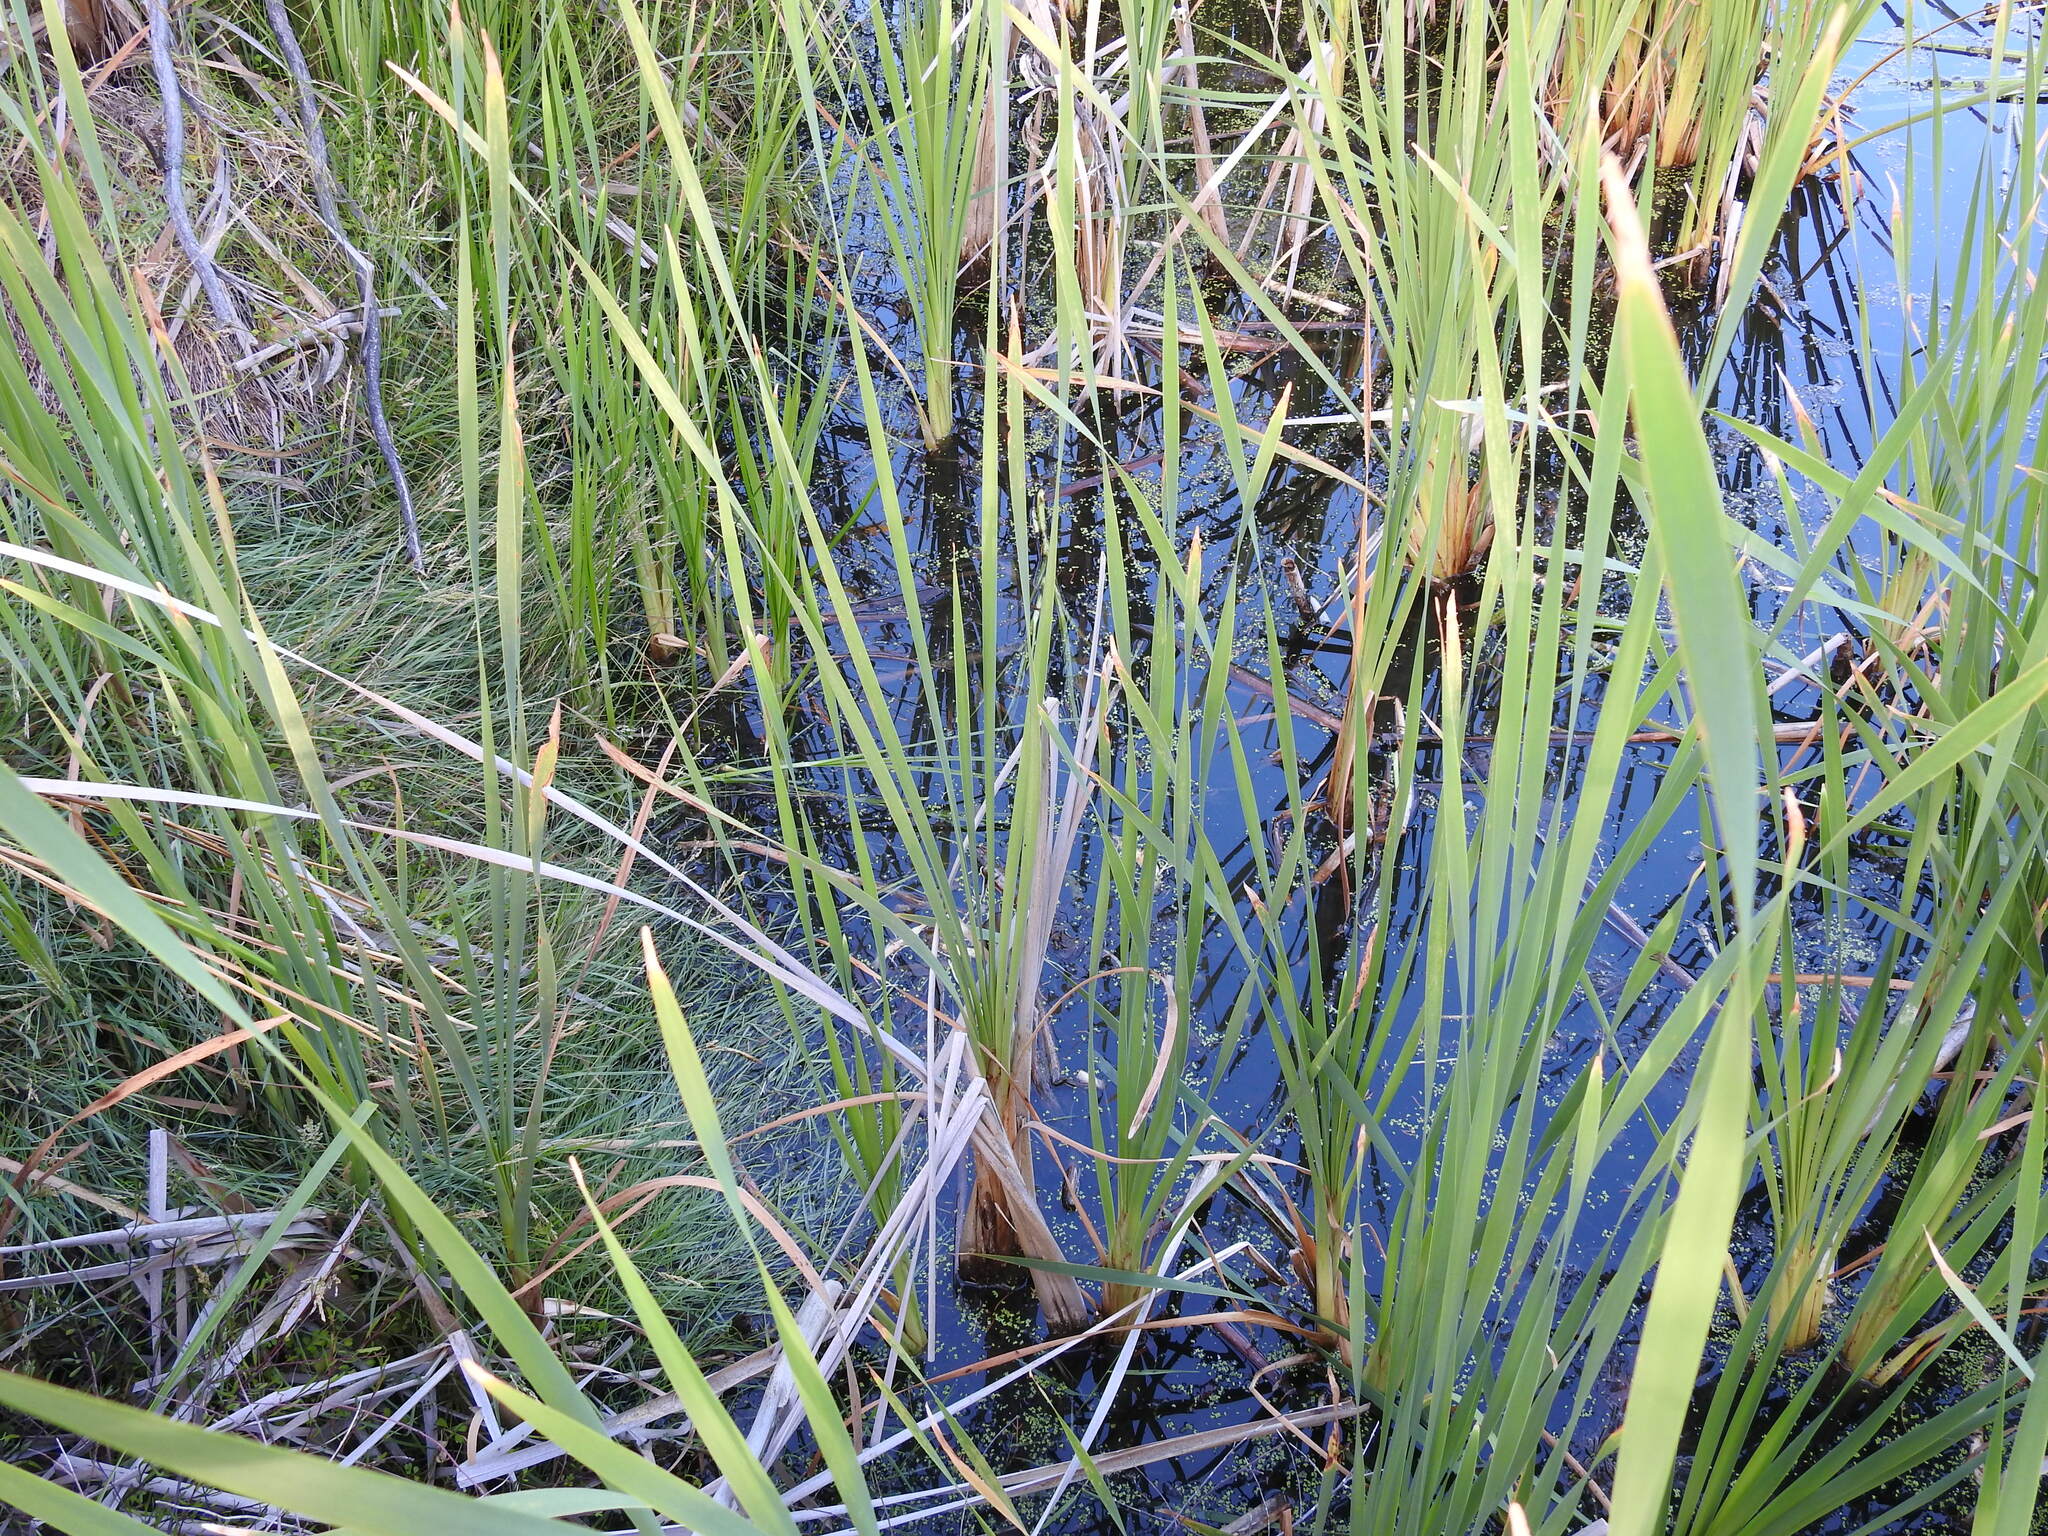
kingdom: Plantae
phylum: Tracheophyta
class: Liliopsida
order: Poales
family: Typhaceae
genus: Typha
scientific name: Typha orientalis
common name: Bullrush
